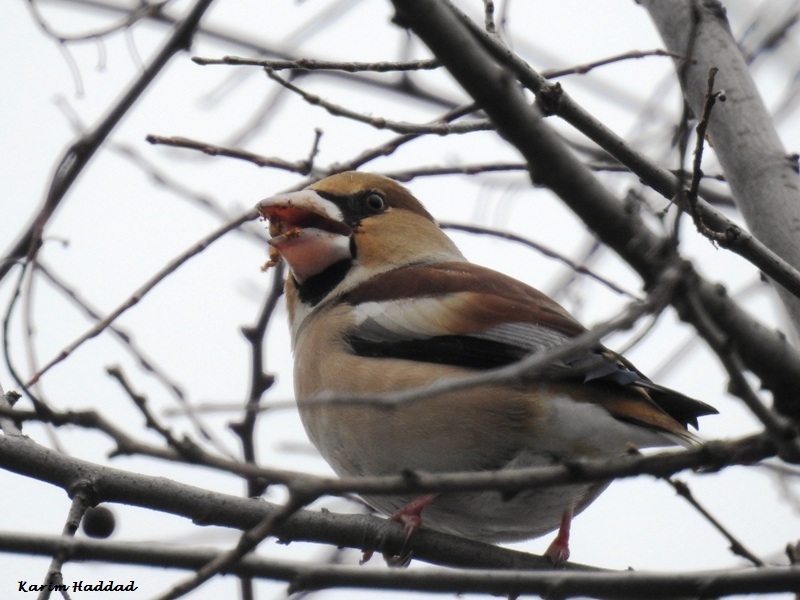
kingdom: Animalia
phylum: Chordata
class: Aves
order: Passeriformes
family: Fringillidae
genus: Coccothraustes
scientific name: Coccothraustes coccothraustes
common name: Hawfinch
